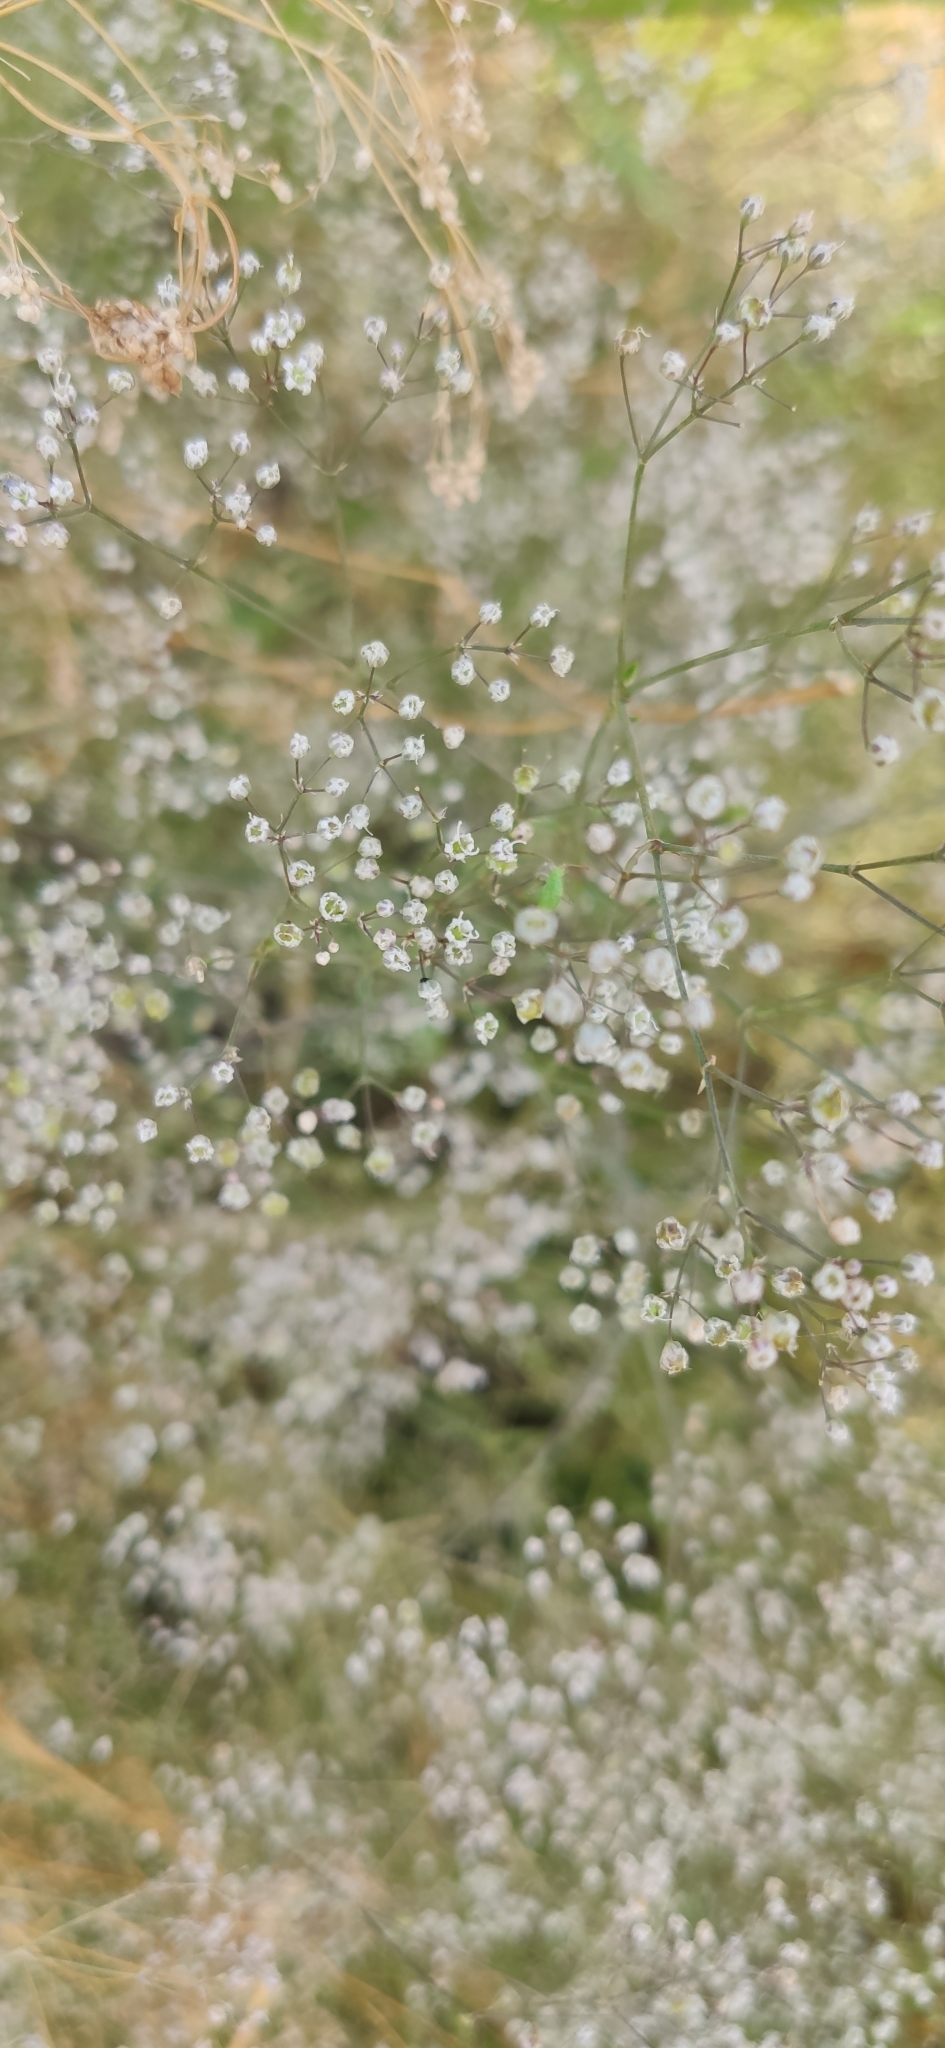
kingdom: Plantae
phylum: Tracheophyta
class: Magnoliopsida
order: Caryophyllales
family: Caryophyllaceae
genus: Gypsophila
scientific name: Gypsophila paniculata
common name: Baby's-breath
